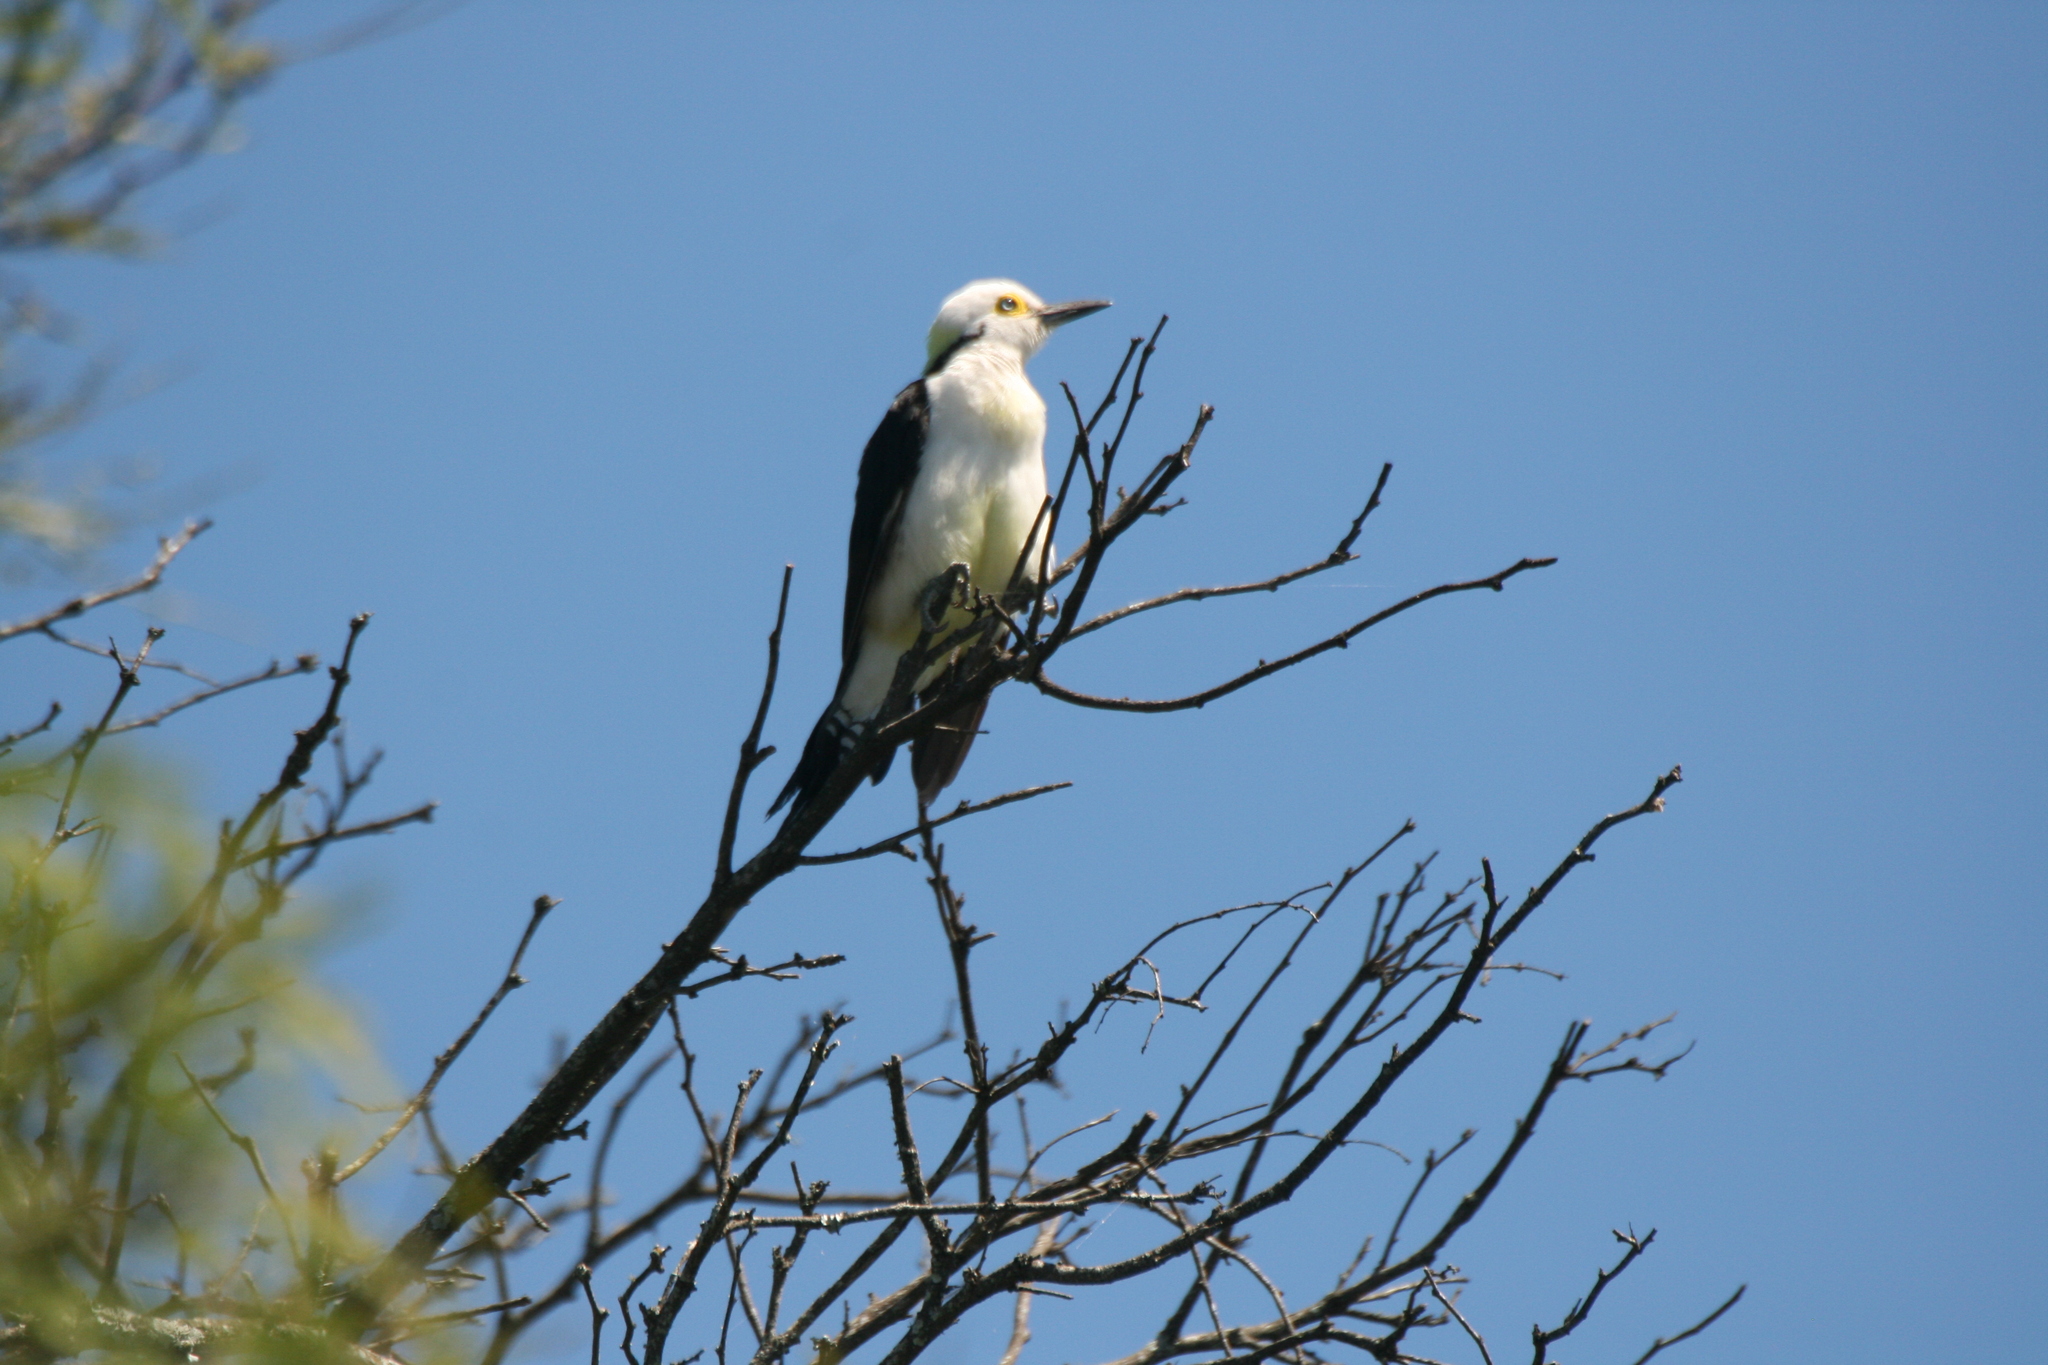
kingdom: Animalia
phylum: Chordata
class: Aves
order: Piciformes
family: Picidae
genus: Melanerpes
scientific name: Melanerpes candidus
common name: White woodpecker
